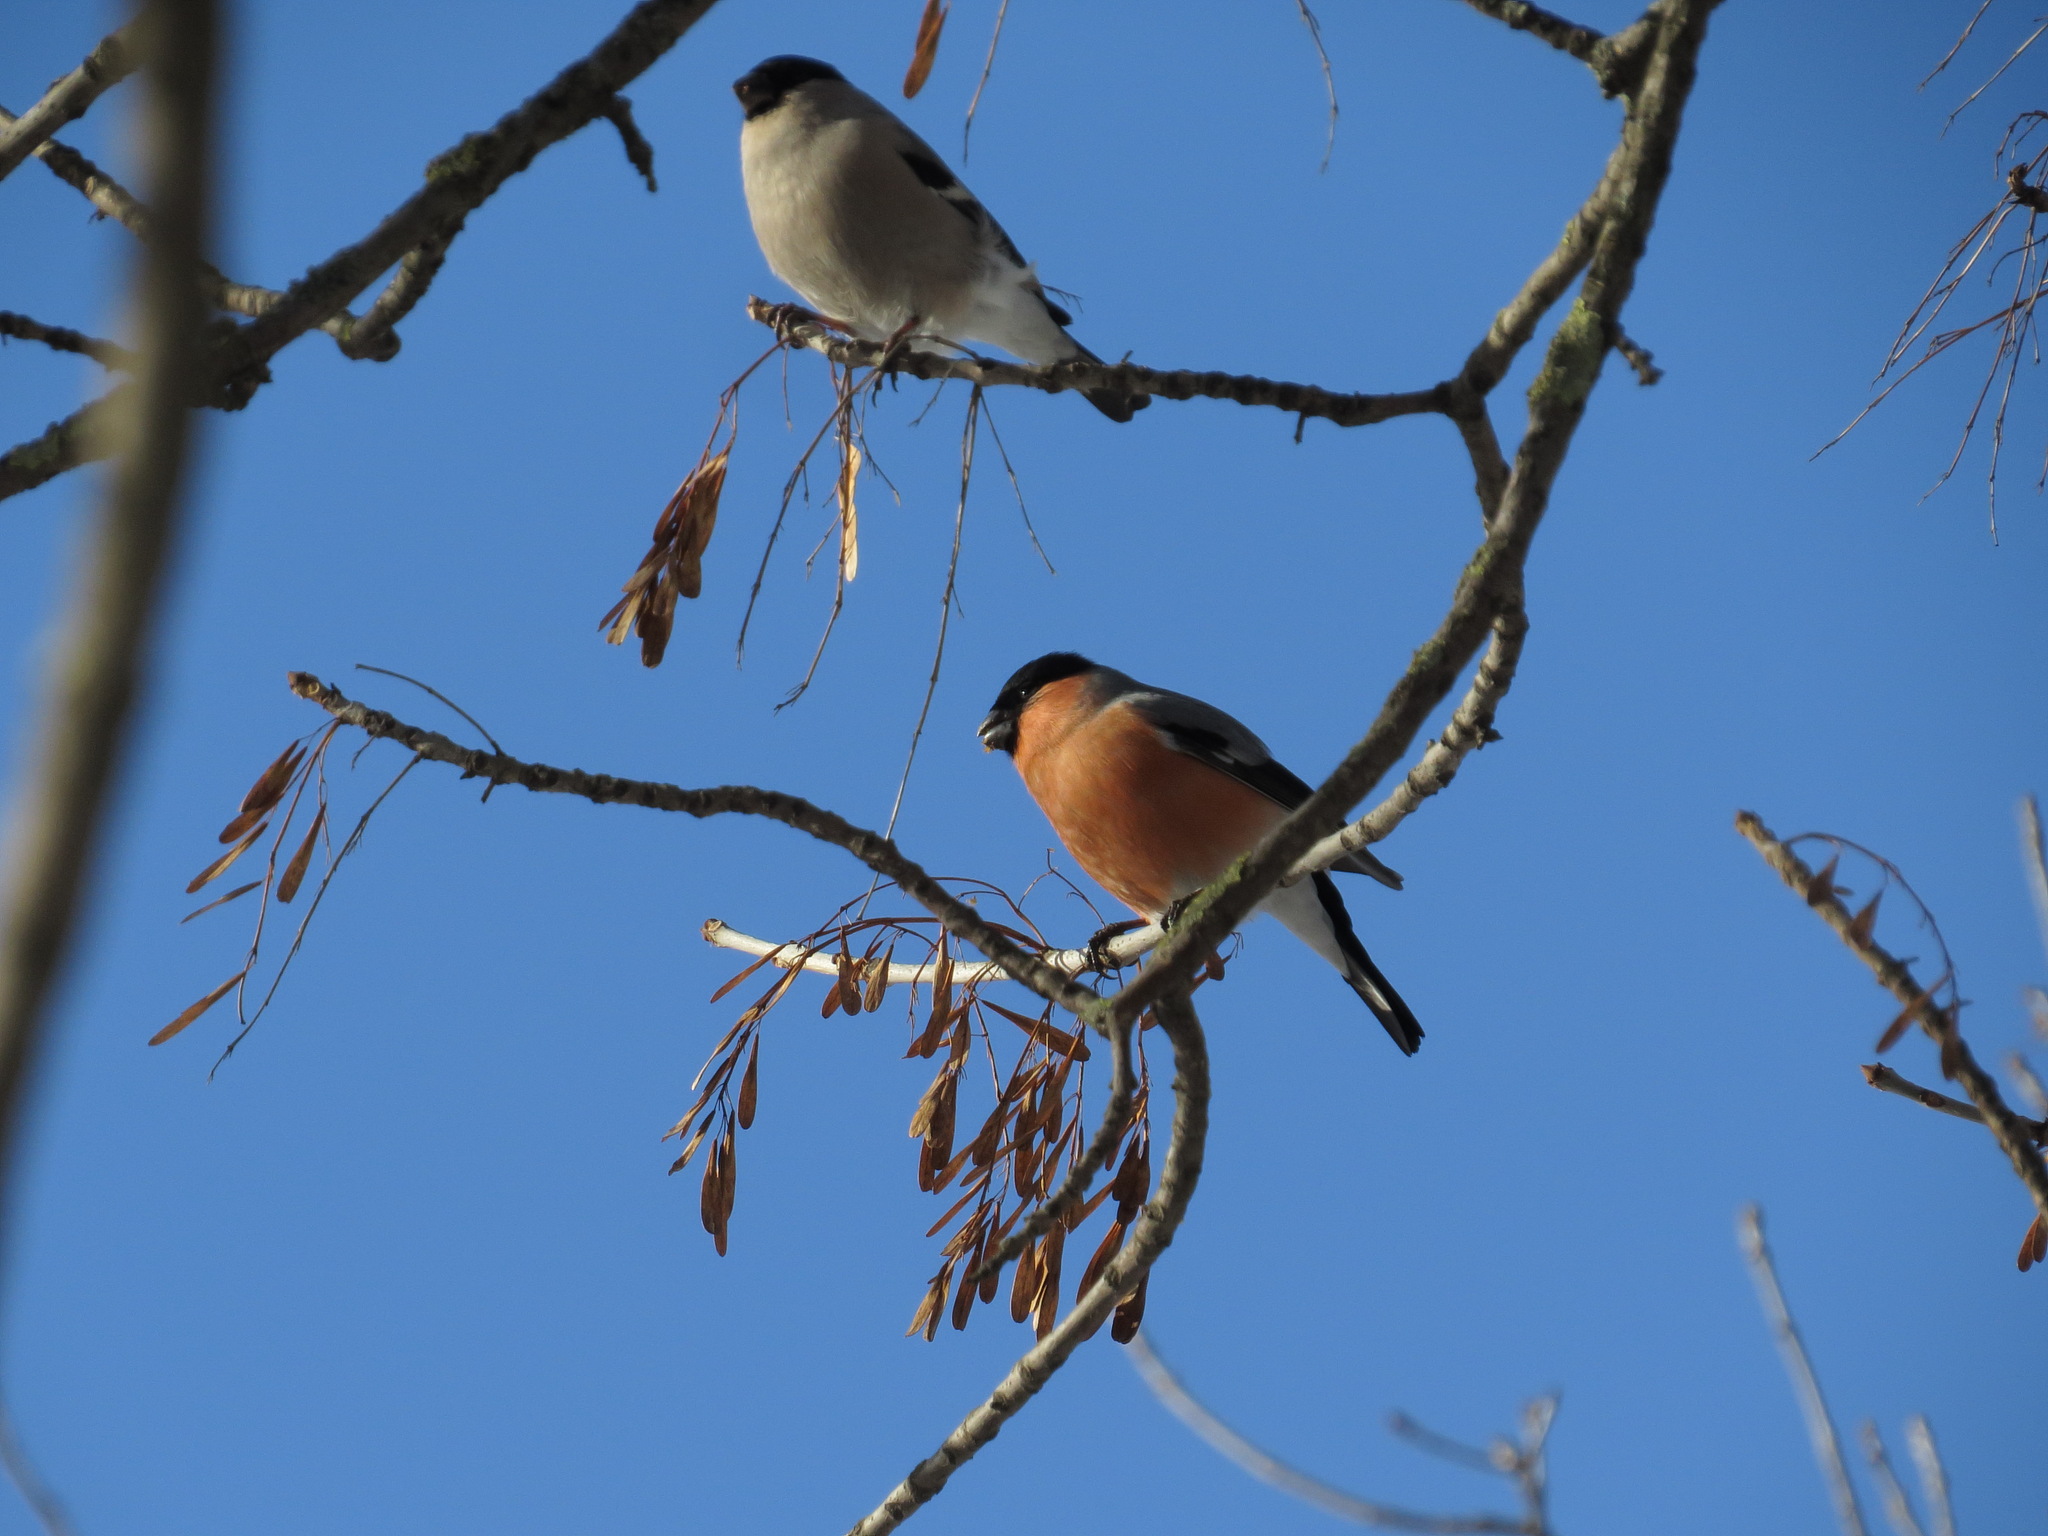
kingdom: Animalia
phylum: Chordata
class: Aves
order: Passeriformes
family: Fringillidae
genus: Pyrrhula
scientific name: Pyrrhula pyrrhula
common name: Eurasian bullfinch
